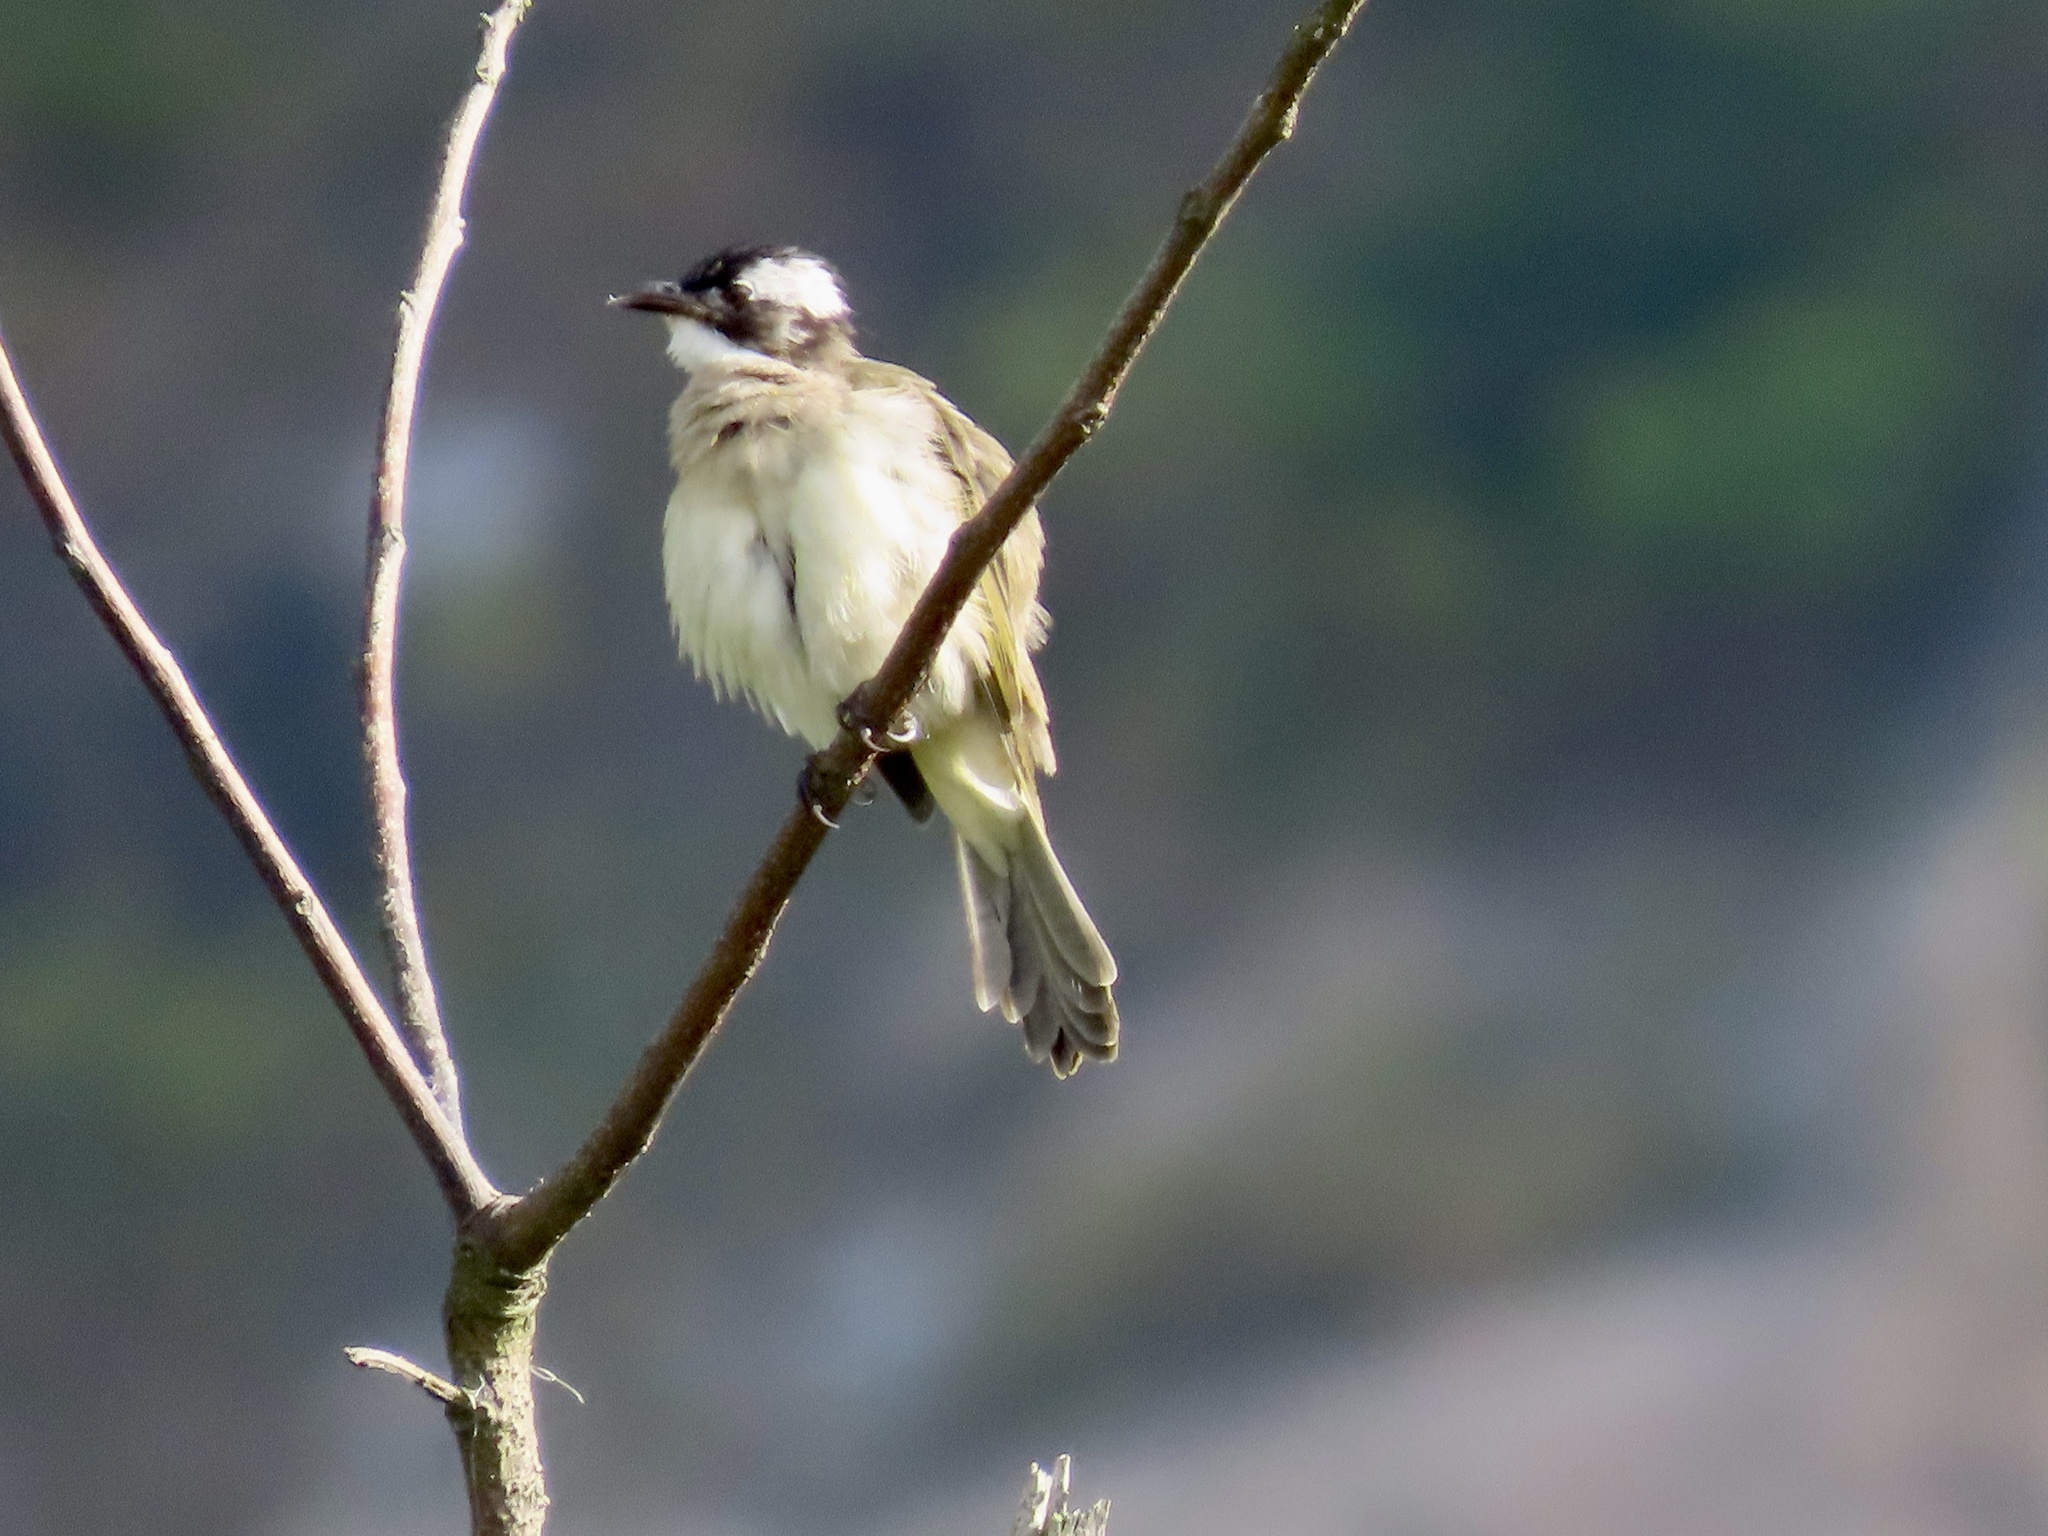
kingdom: Animalia
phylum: Chordata
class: Aves
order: Passeriformes
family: Pycnonotidae
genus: Pycnonotus
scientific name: Pycnonotus sinensis
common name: Light-vented bulbul
